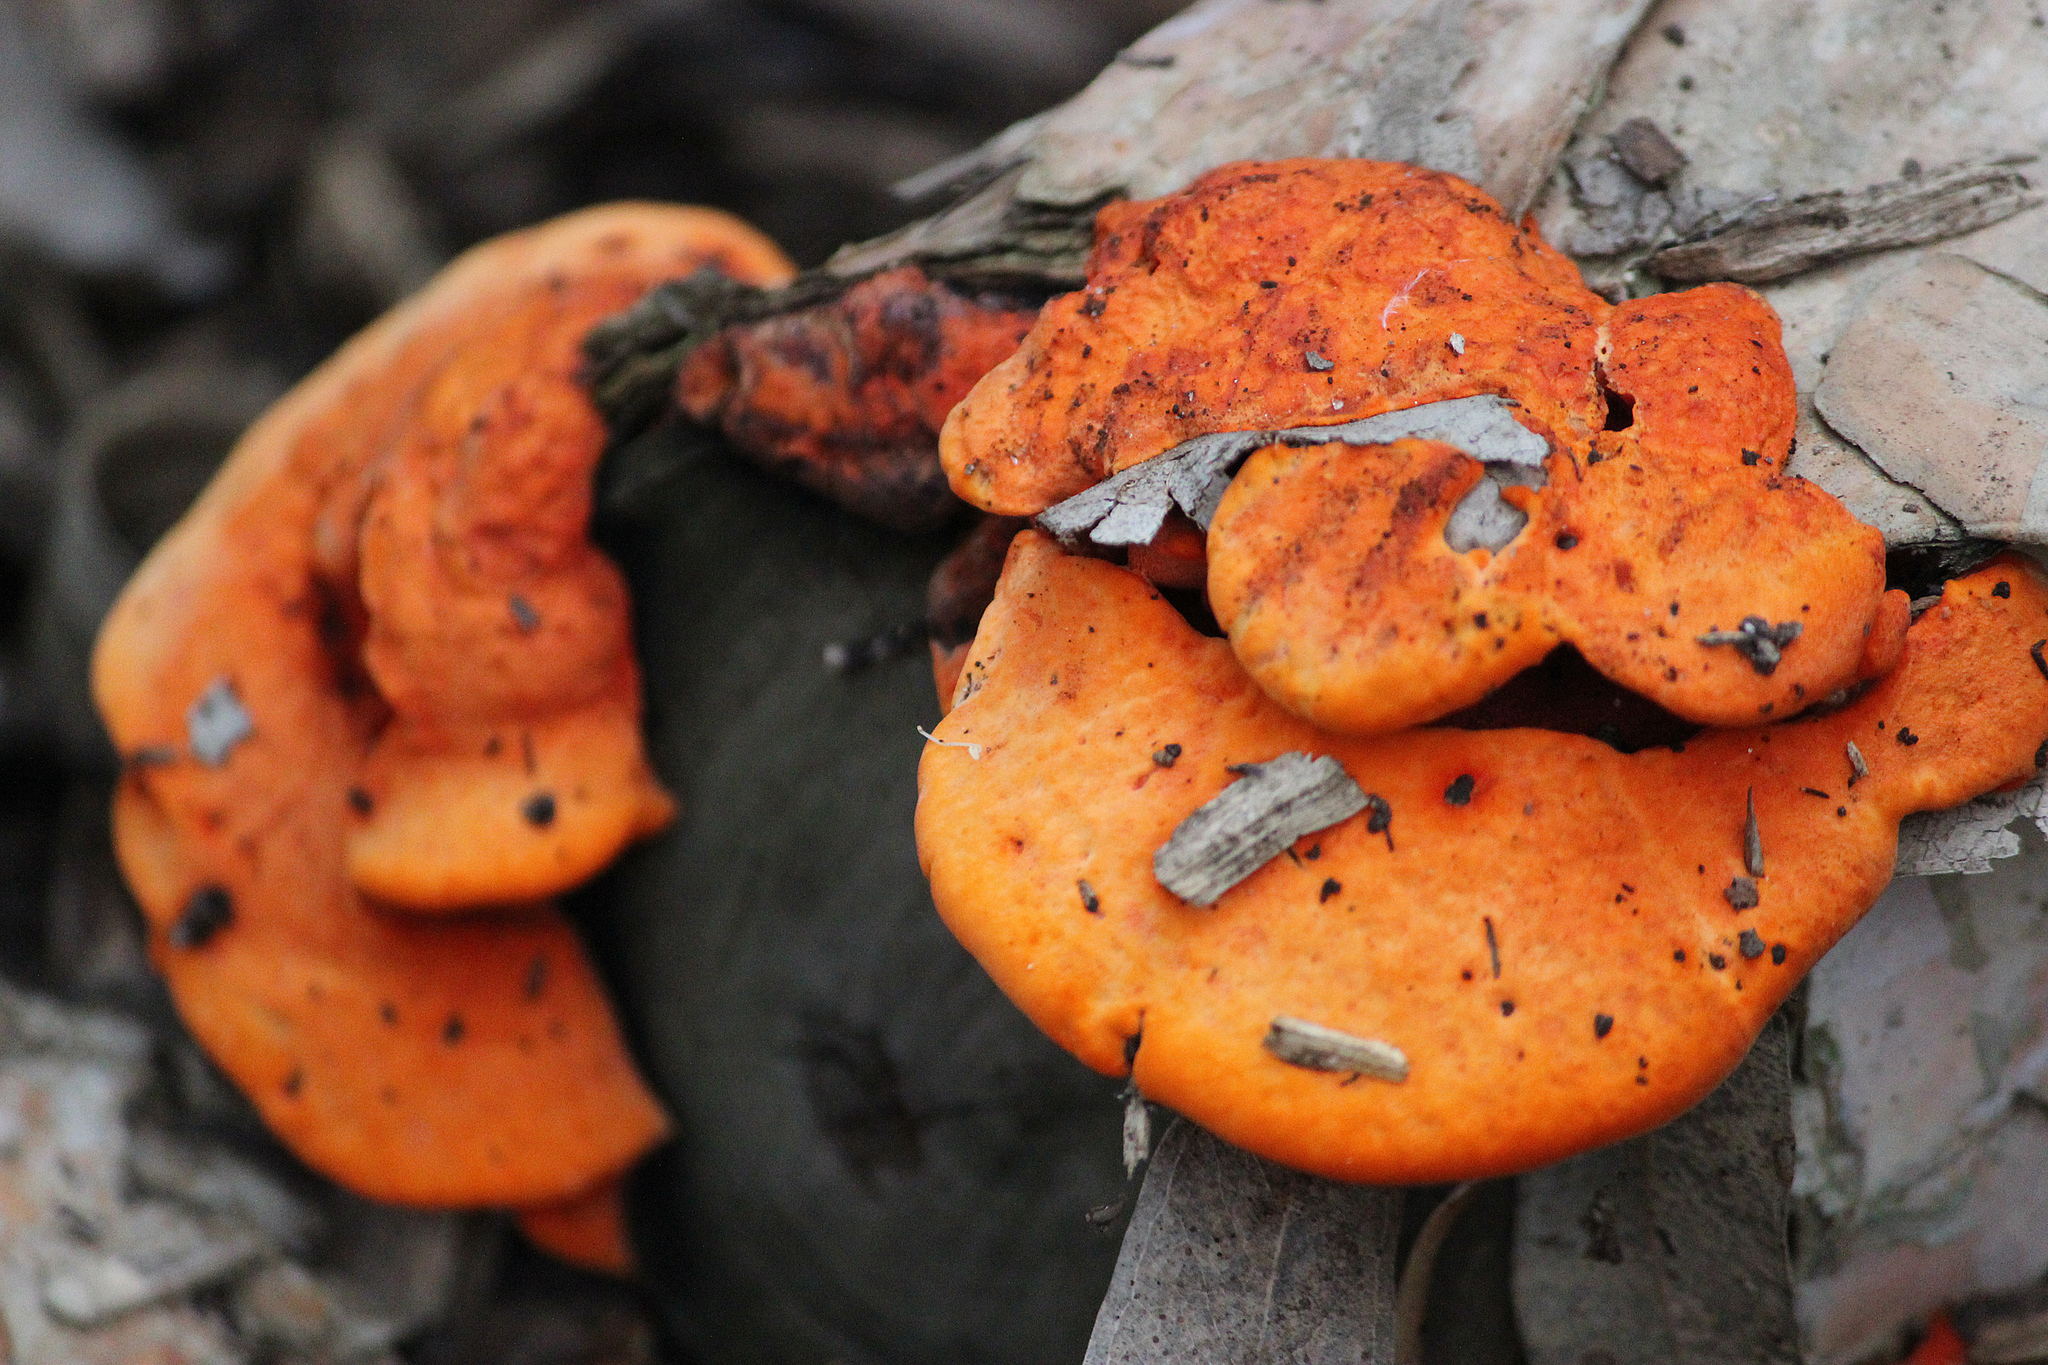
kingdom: Fungi
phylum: Basidiomycota
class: Agaricomycetes
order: Polyporales
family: Polyporaceae
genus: Trametes
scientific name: Trametes coccinea
